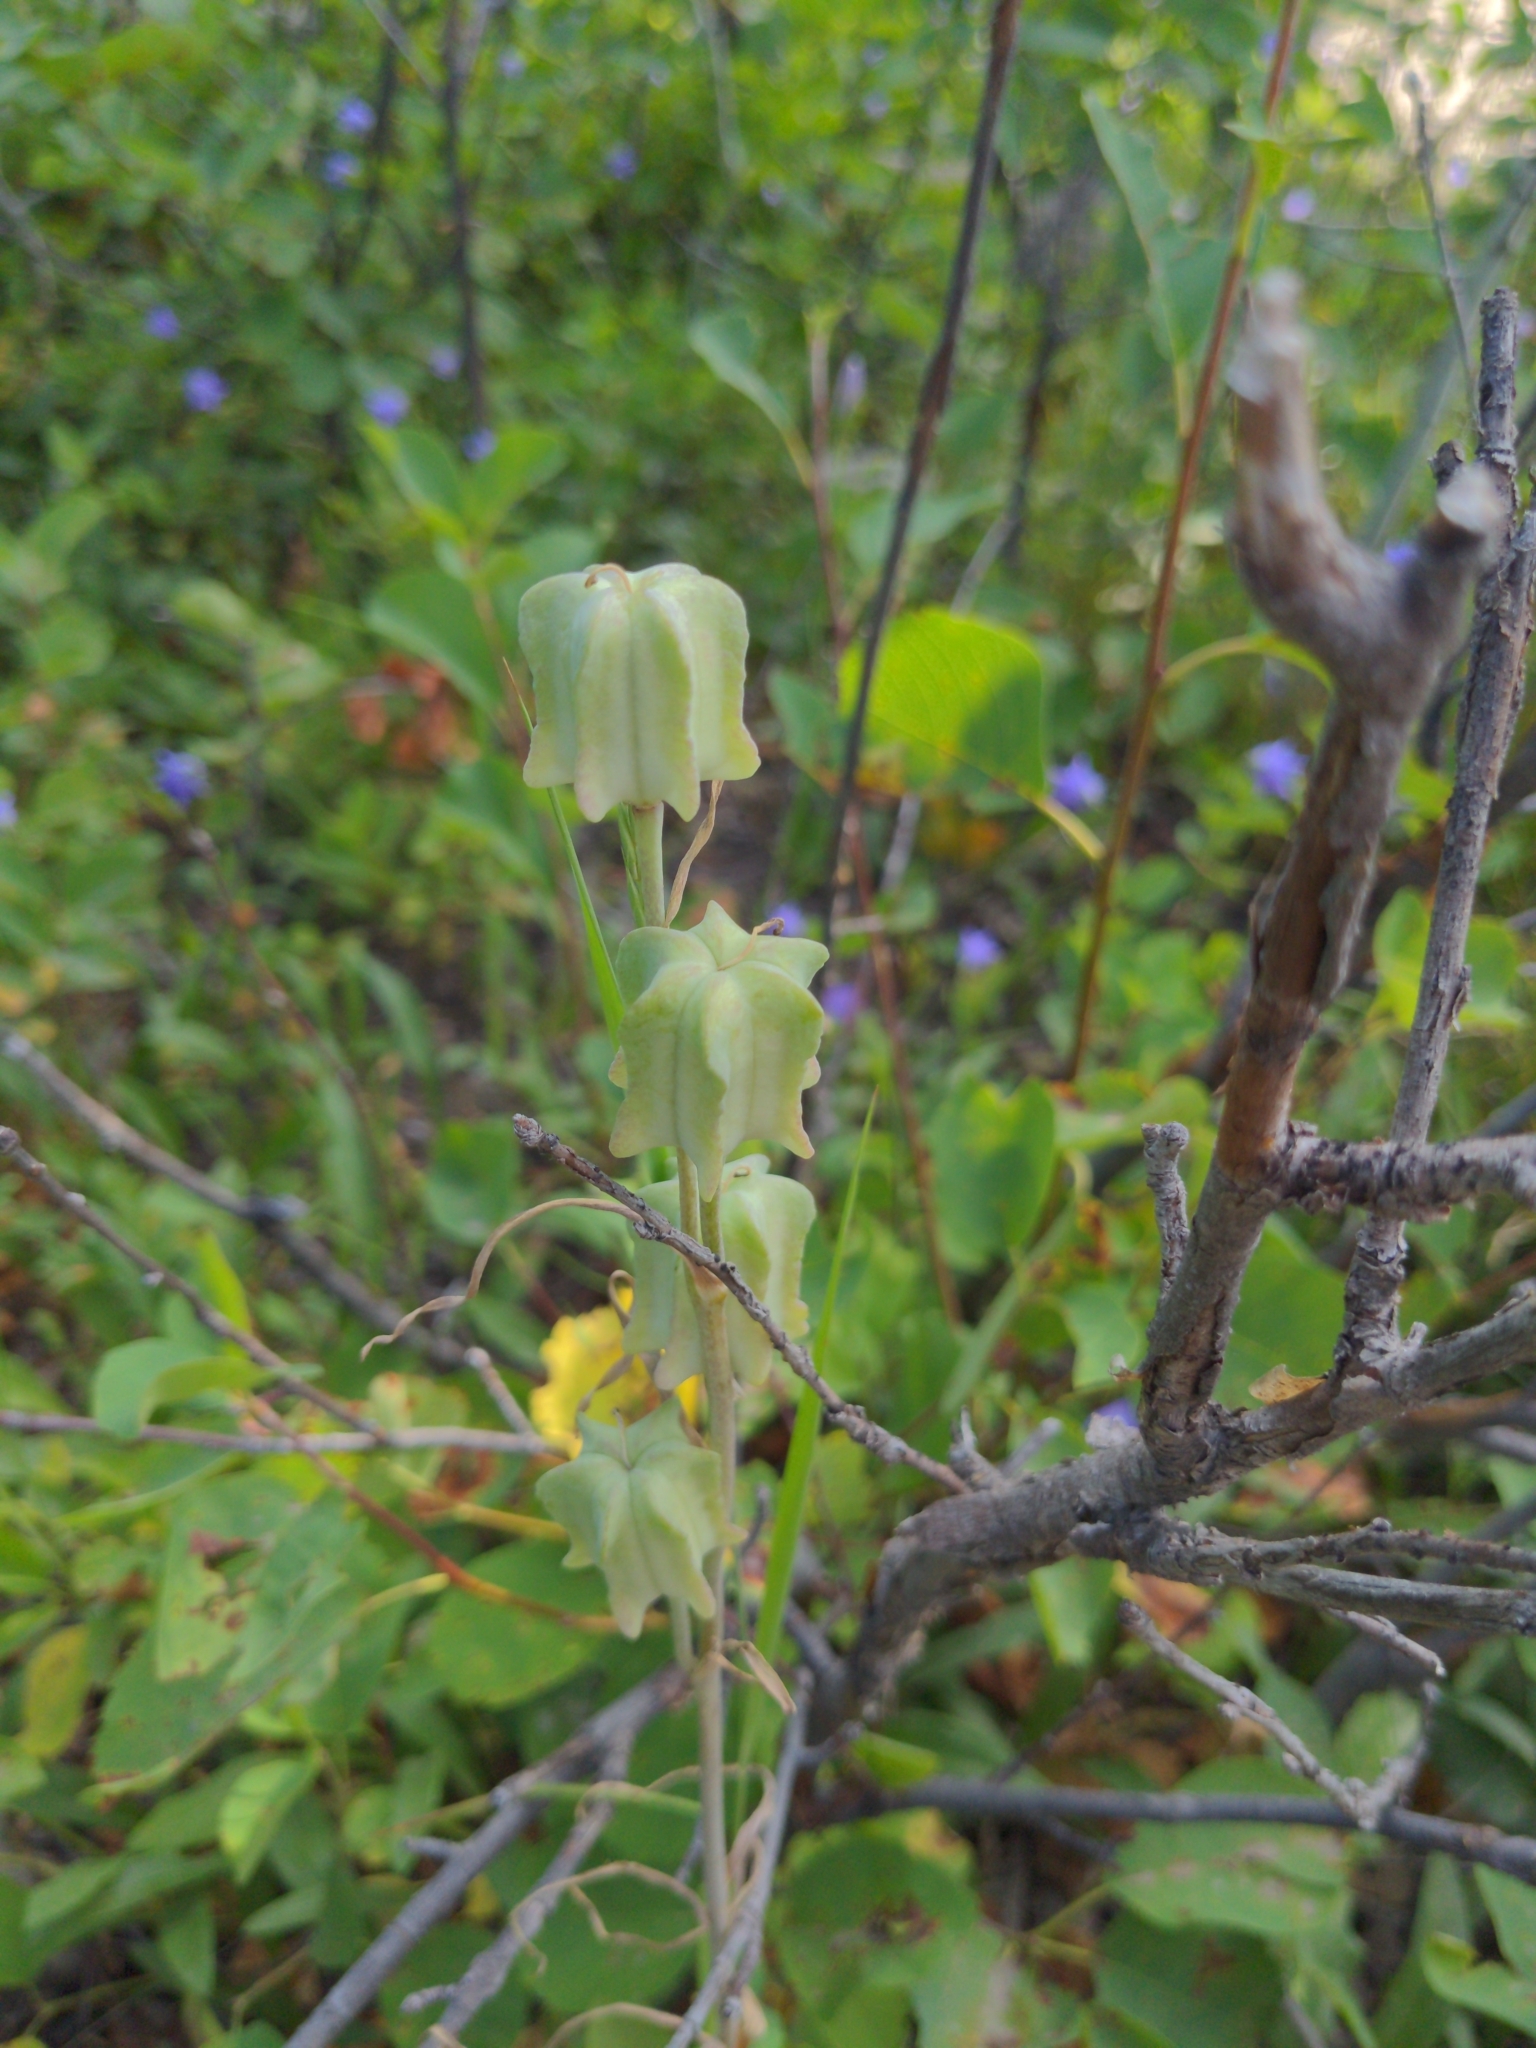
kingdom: Plantae
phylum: Tracheophyta
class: Liliopsida
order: Liliales
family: Liliaceae
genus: Fritillaria
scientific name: Fritillaria atropurpurea
